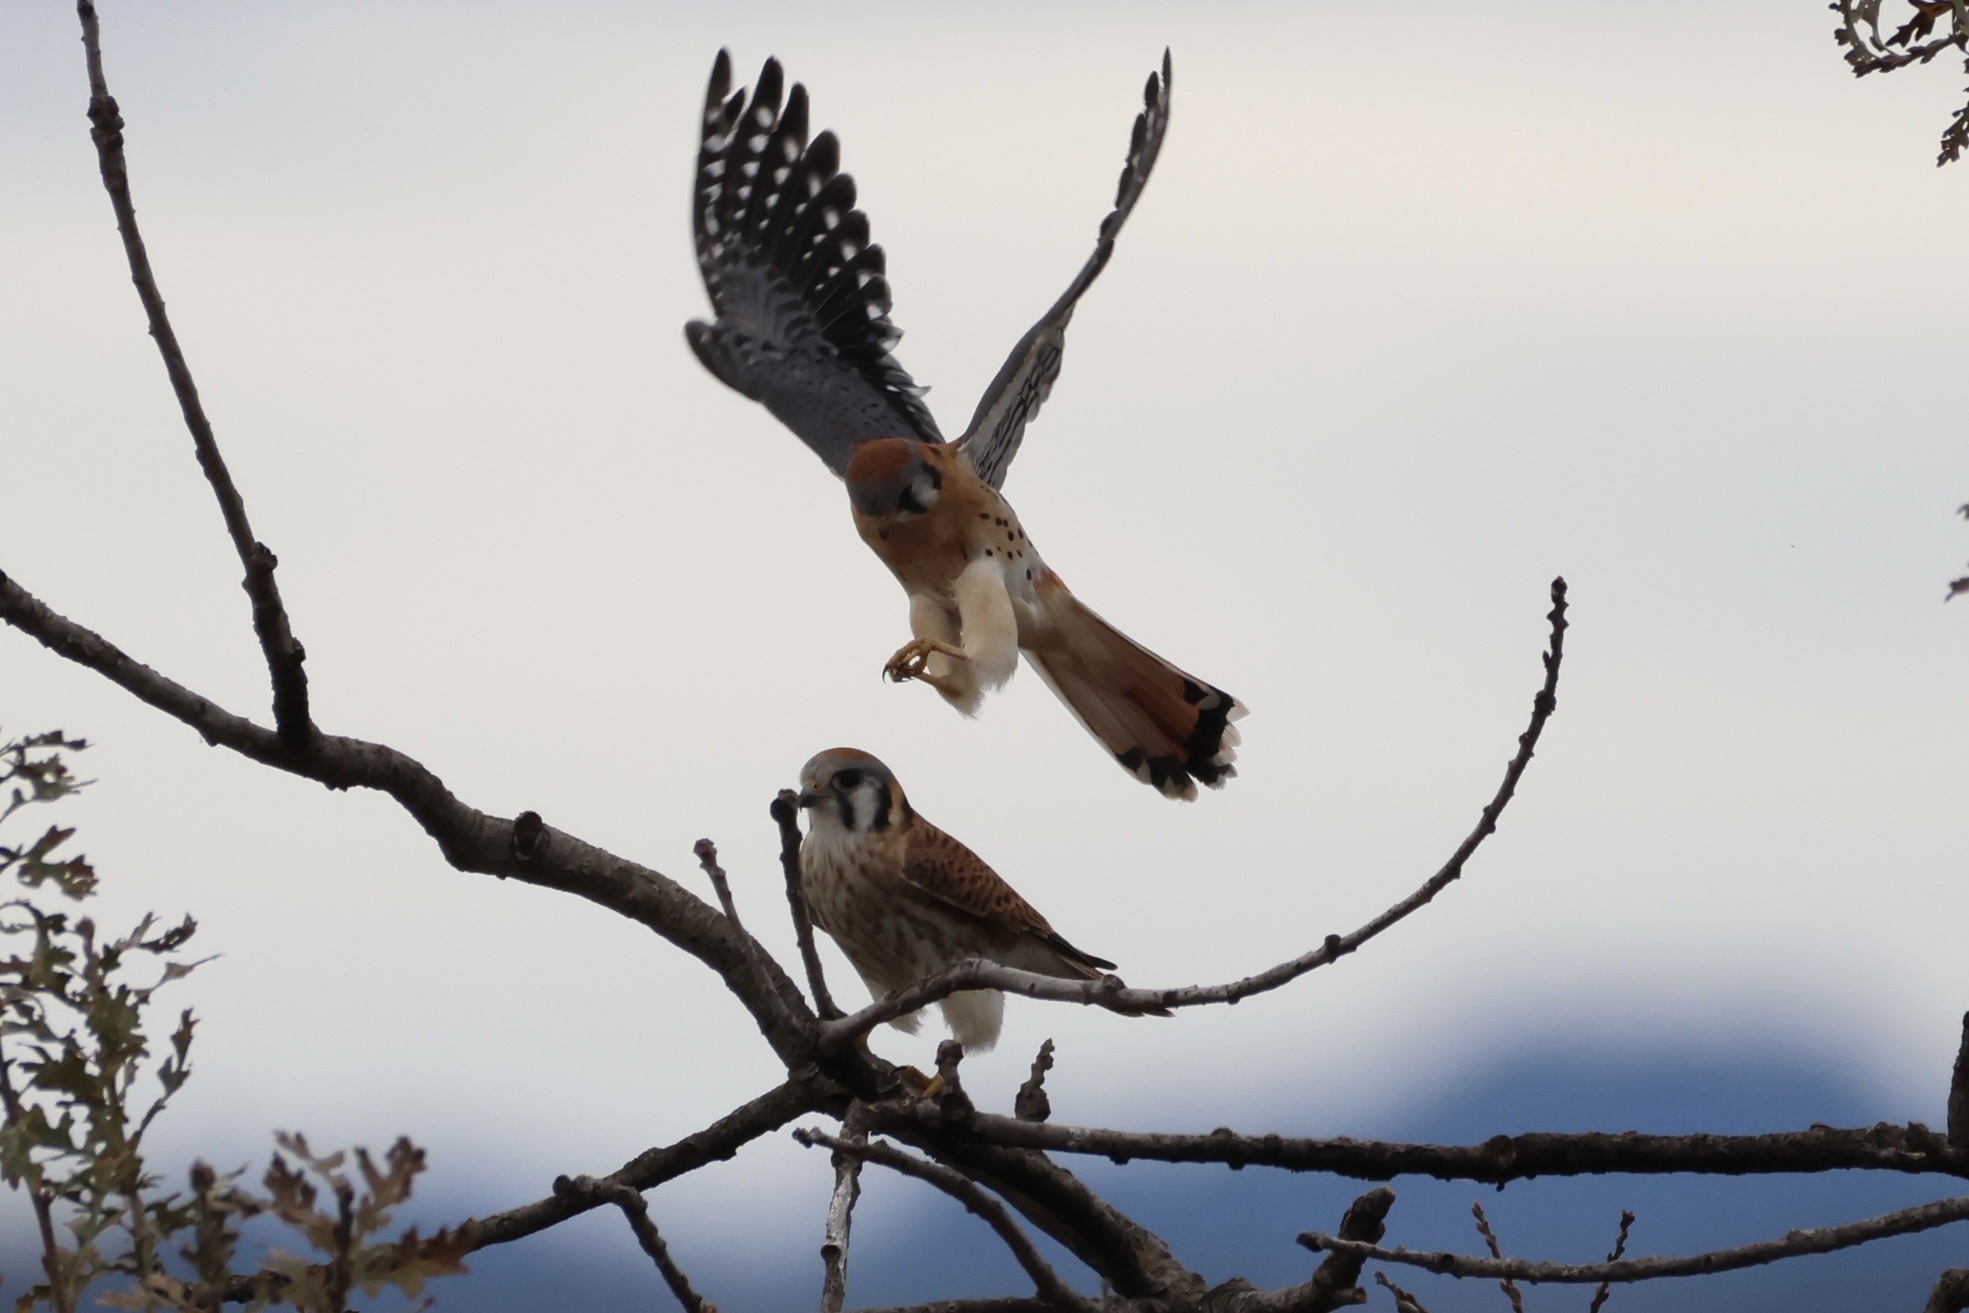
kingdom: Animalia
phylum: Chordata
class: Aves
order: Falconiformes
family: Falconidae
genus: Falco
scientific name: Falco sparverius
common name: American kestrel
